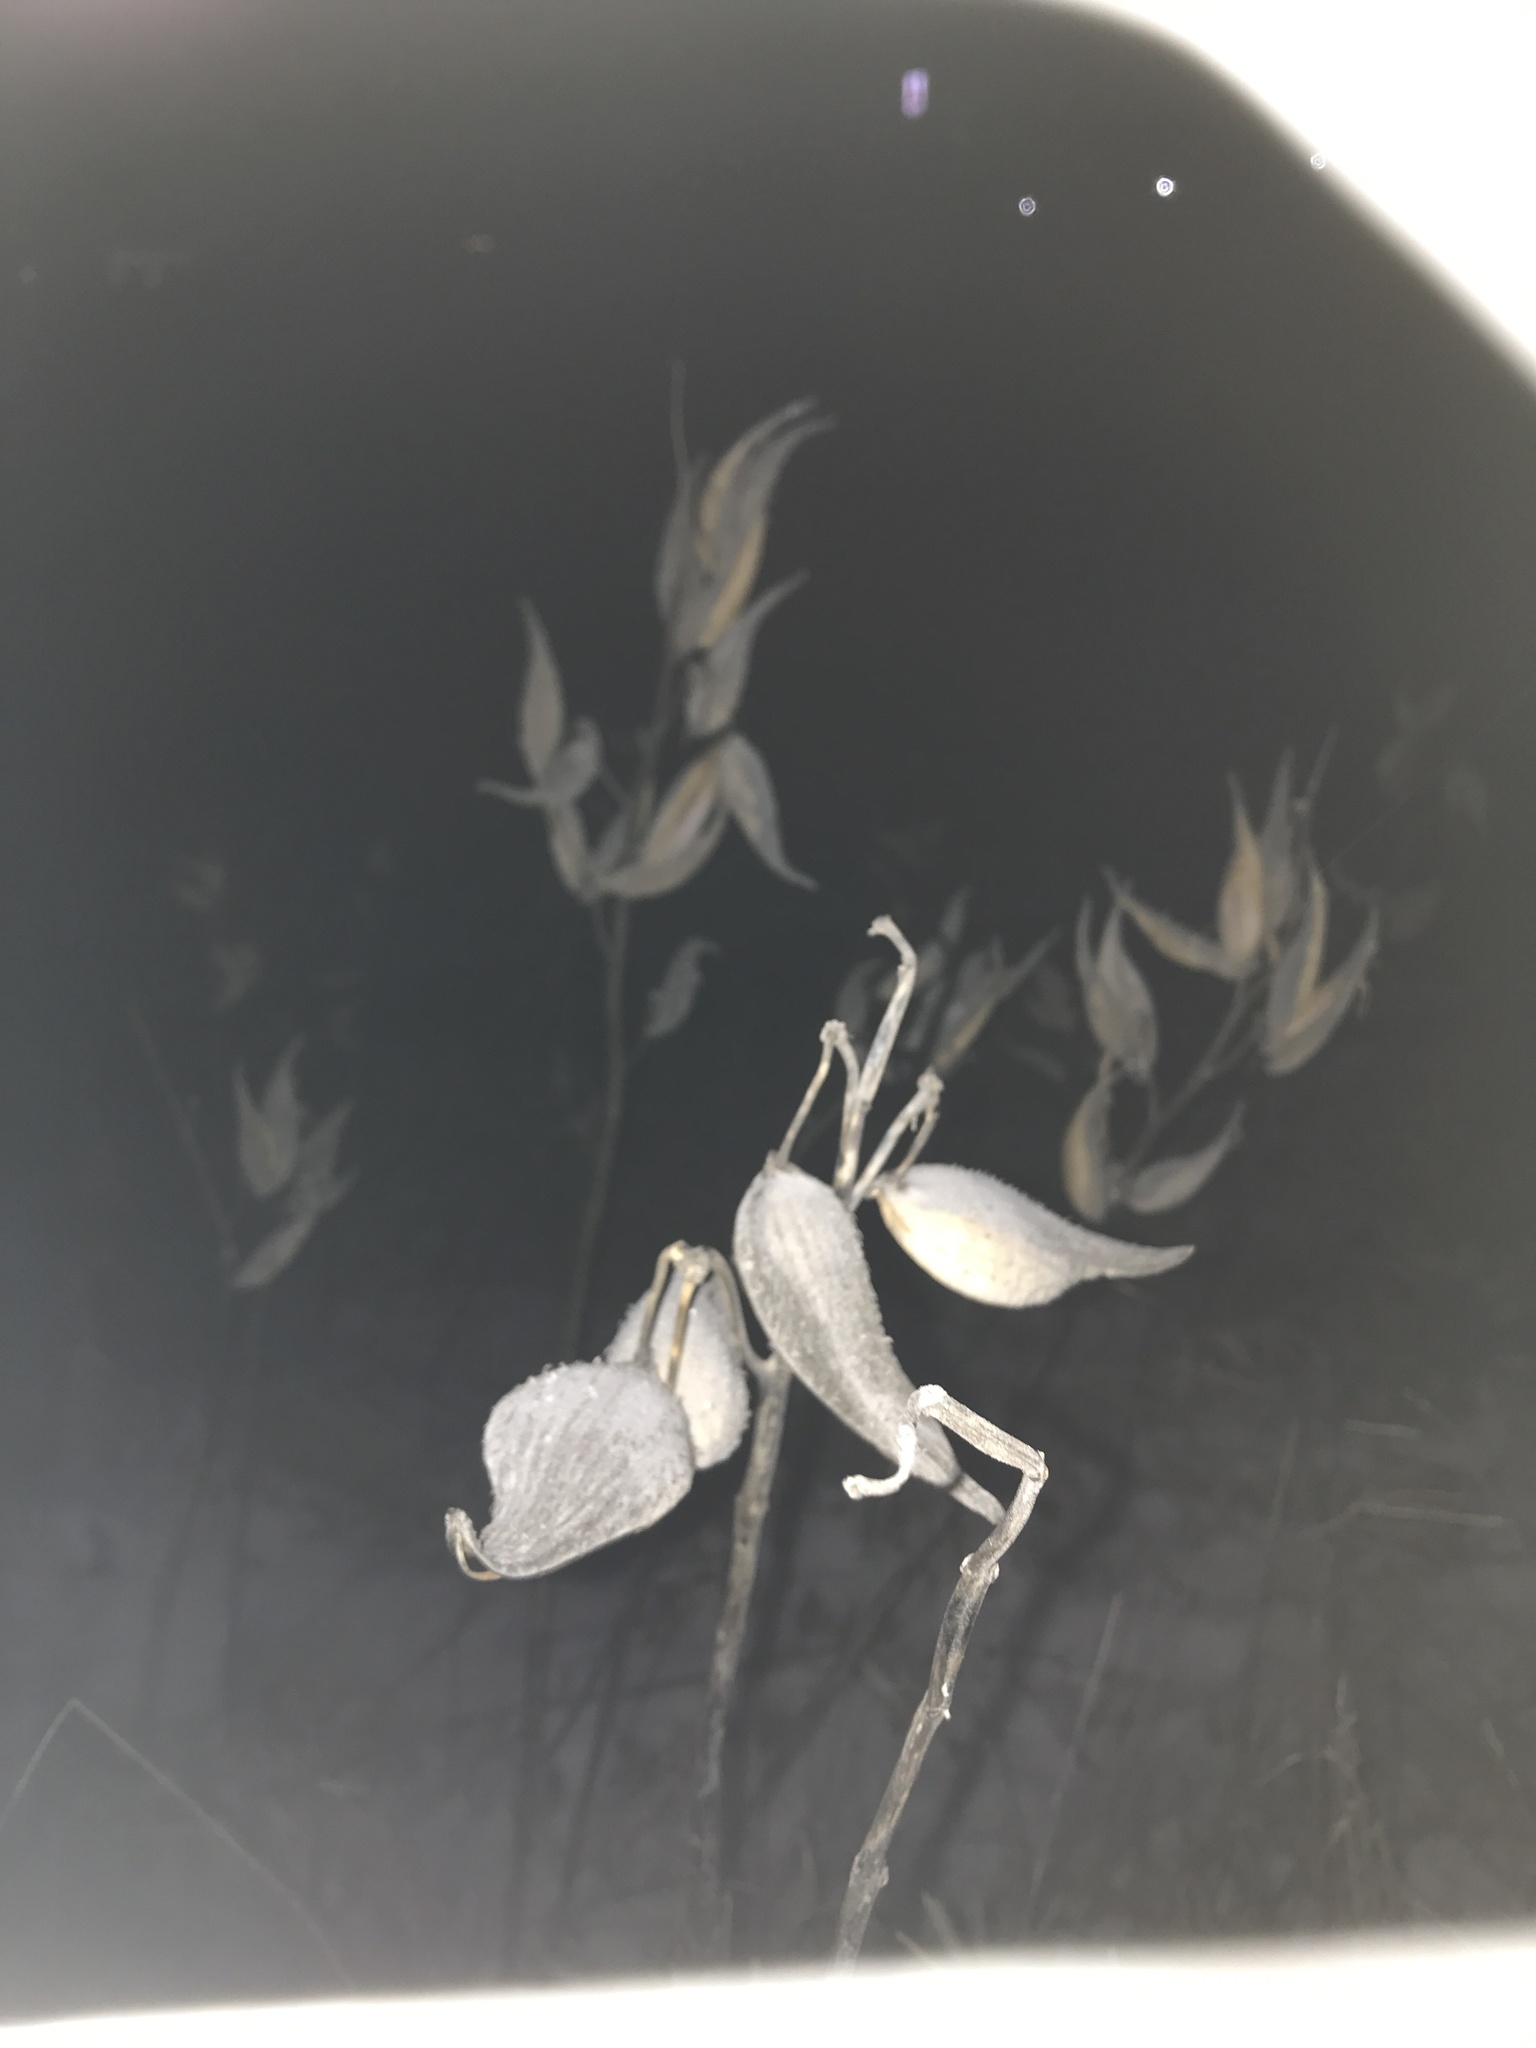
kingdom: Plantae
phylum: Tracheophyta
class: Magnoliopsida
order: Gentianales
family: Apocynaceae
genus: Asclepias
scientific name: Asclepias syriaca
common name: Common milkweed
